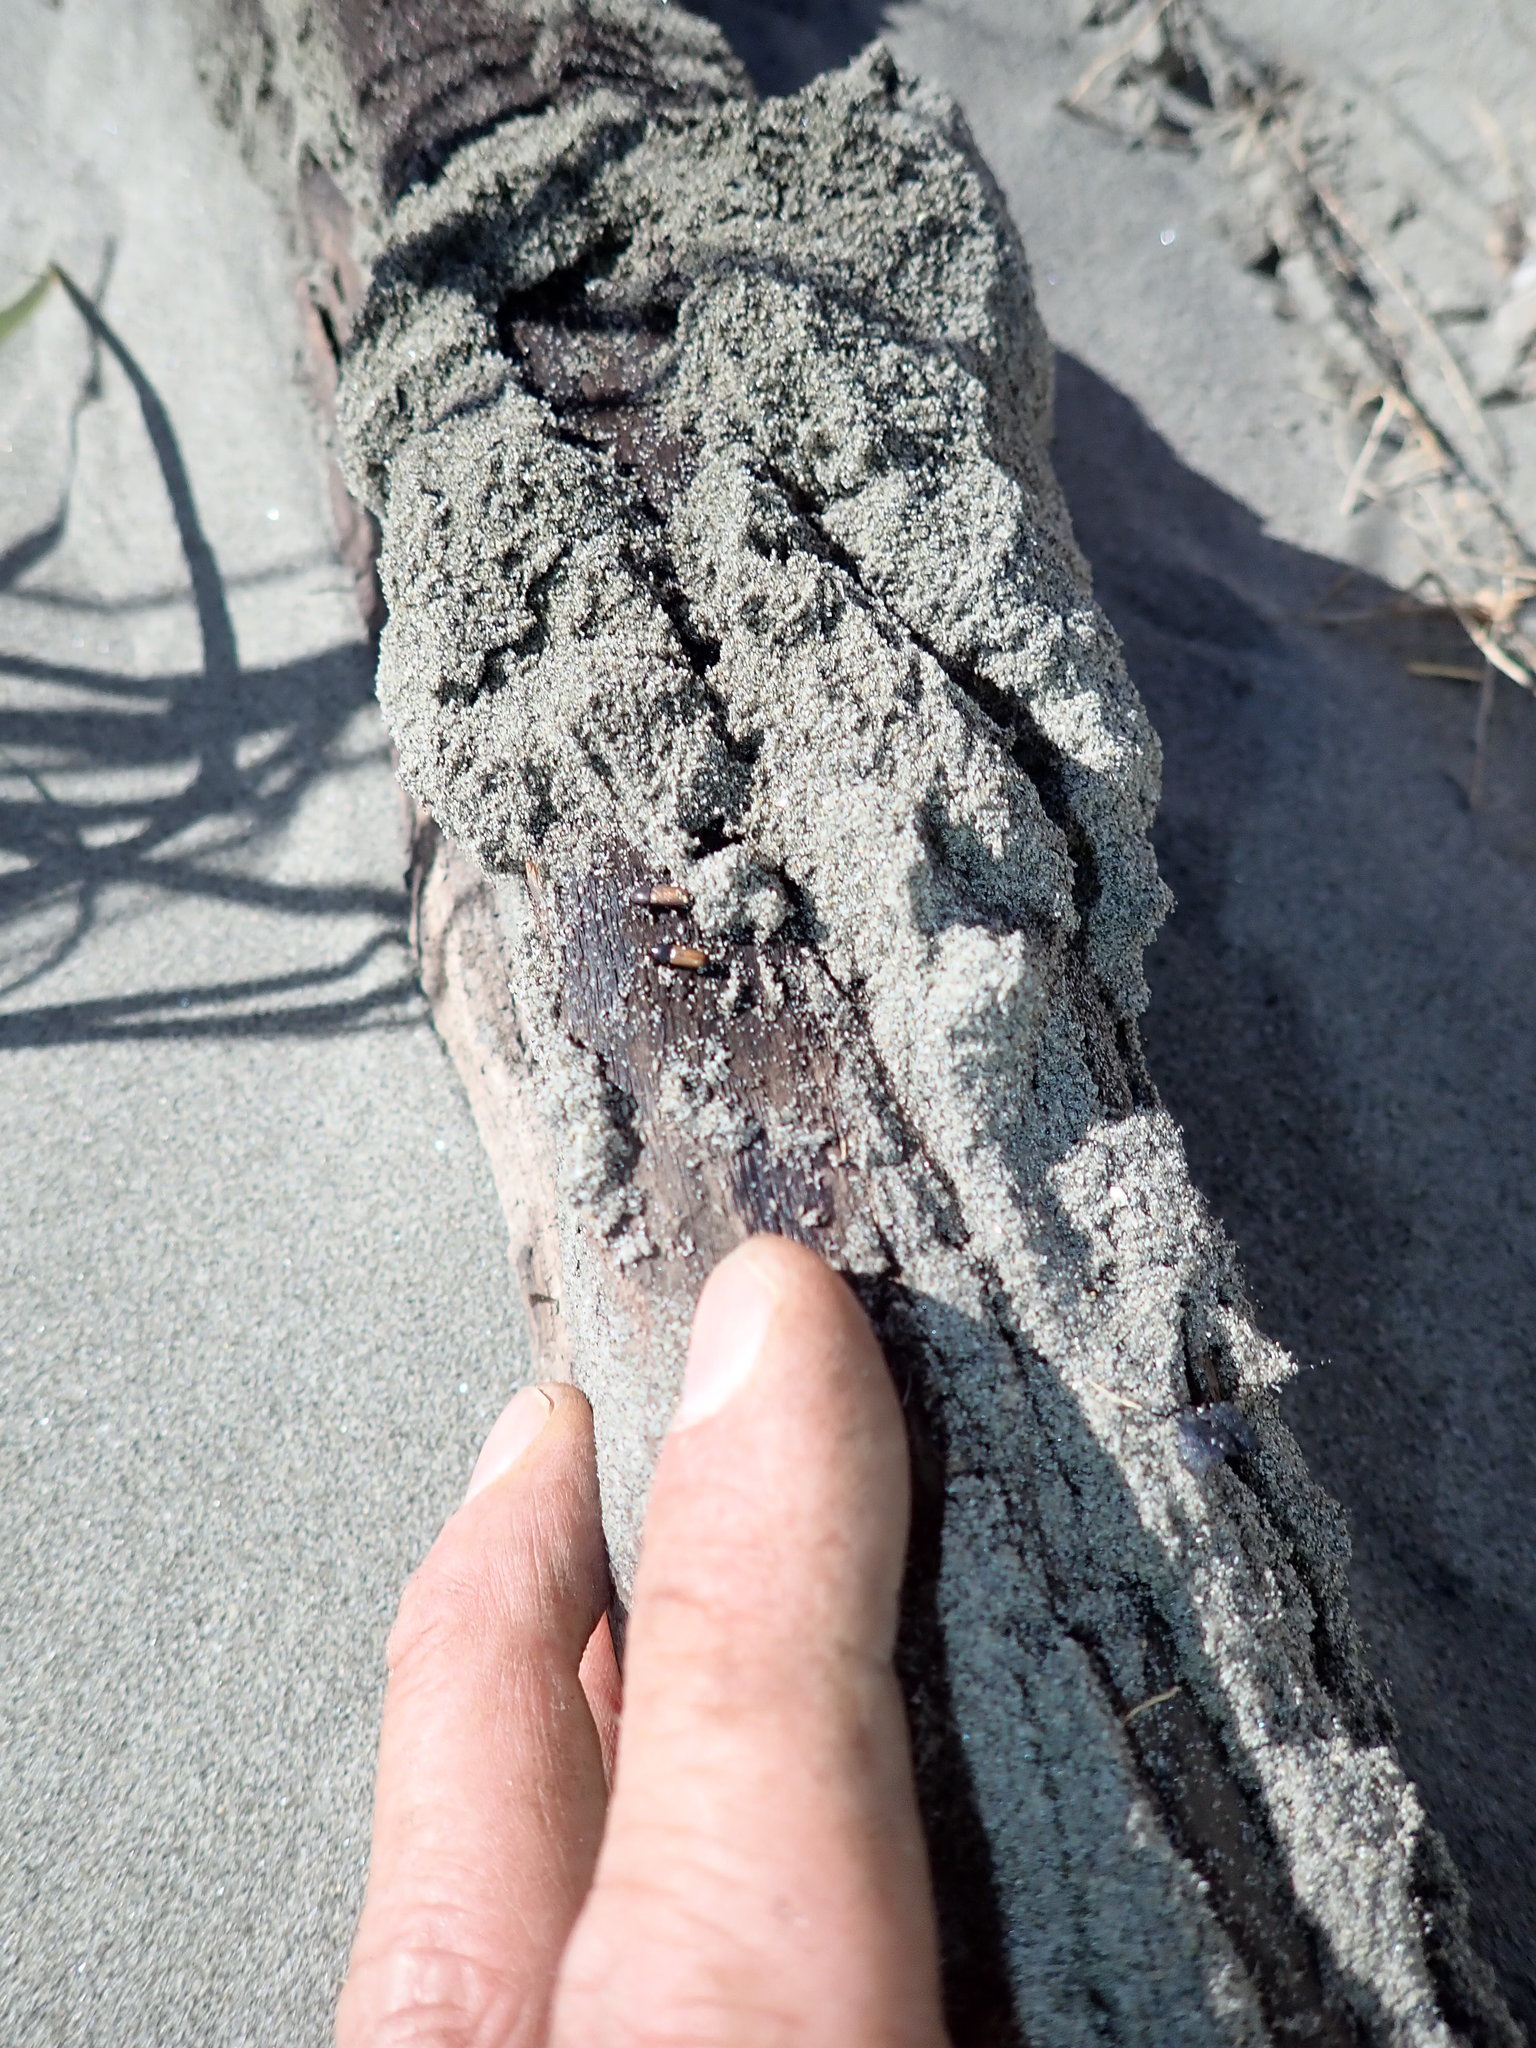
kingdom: Animalia
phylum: Arthropoda
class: Insecta
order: Coleoptera
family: Curculionidae
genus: Mesites
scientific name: Mesites pallidipennis
